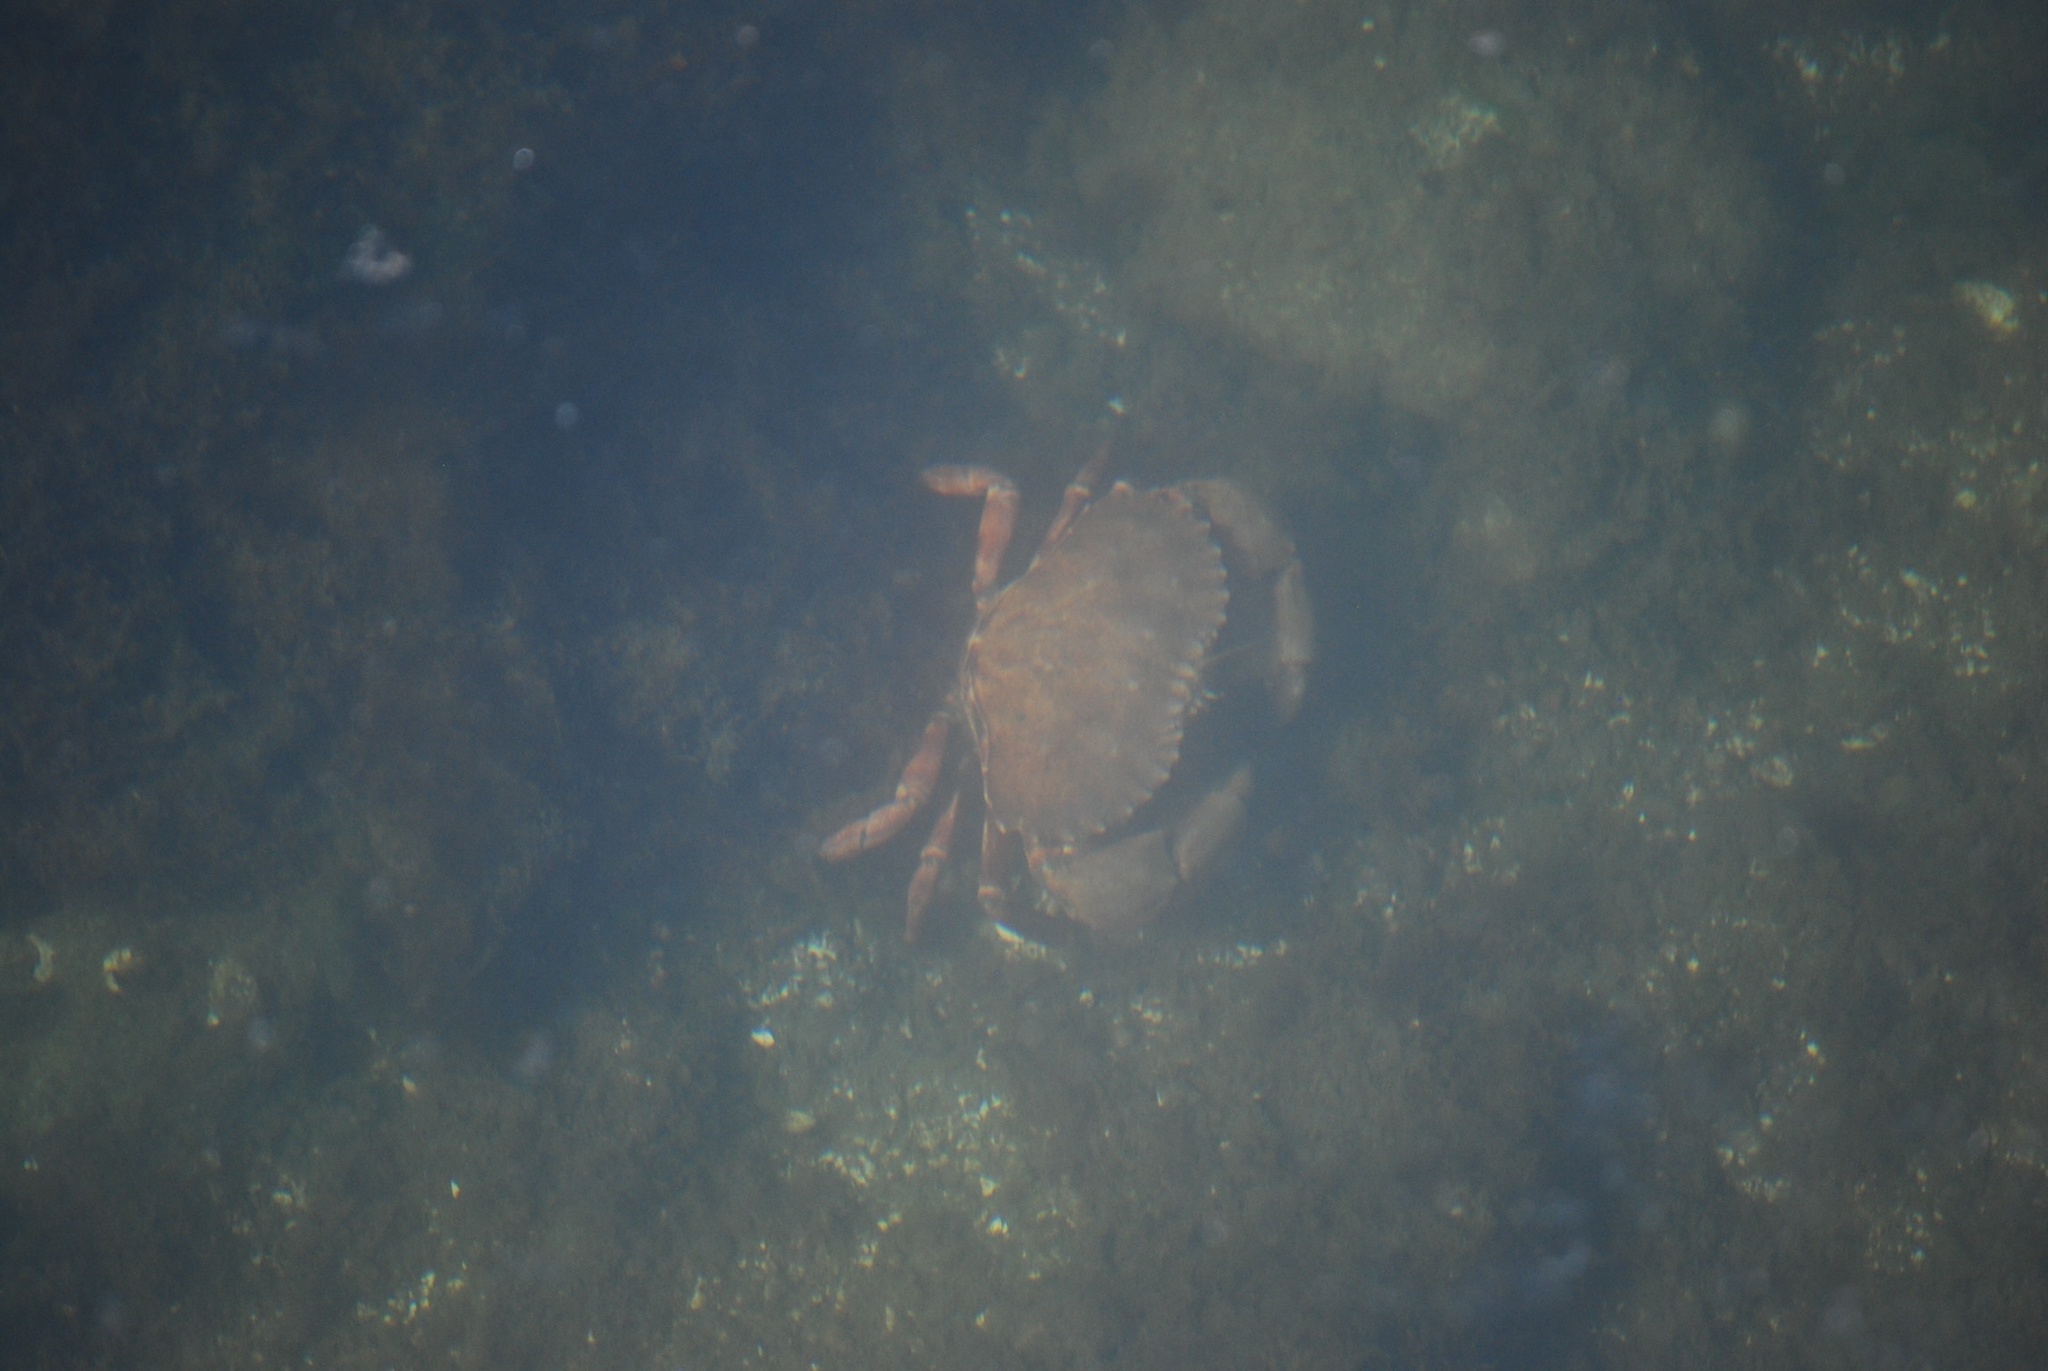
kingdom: Animalia
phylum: Arthropoda
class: Malacostraca
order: Decapoda
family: Cancridae
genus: Cancer
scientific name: Cancer productus
